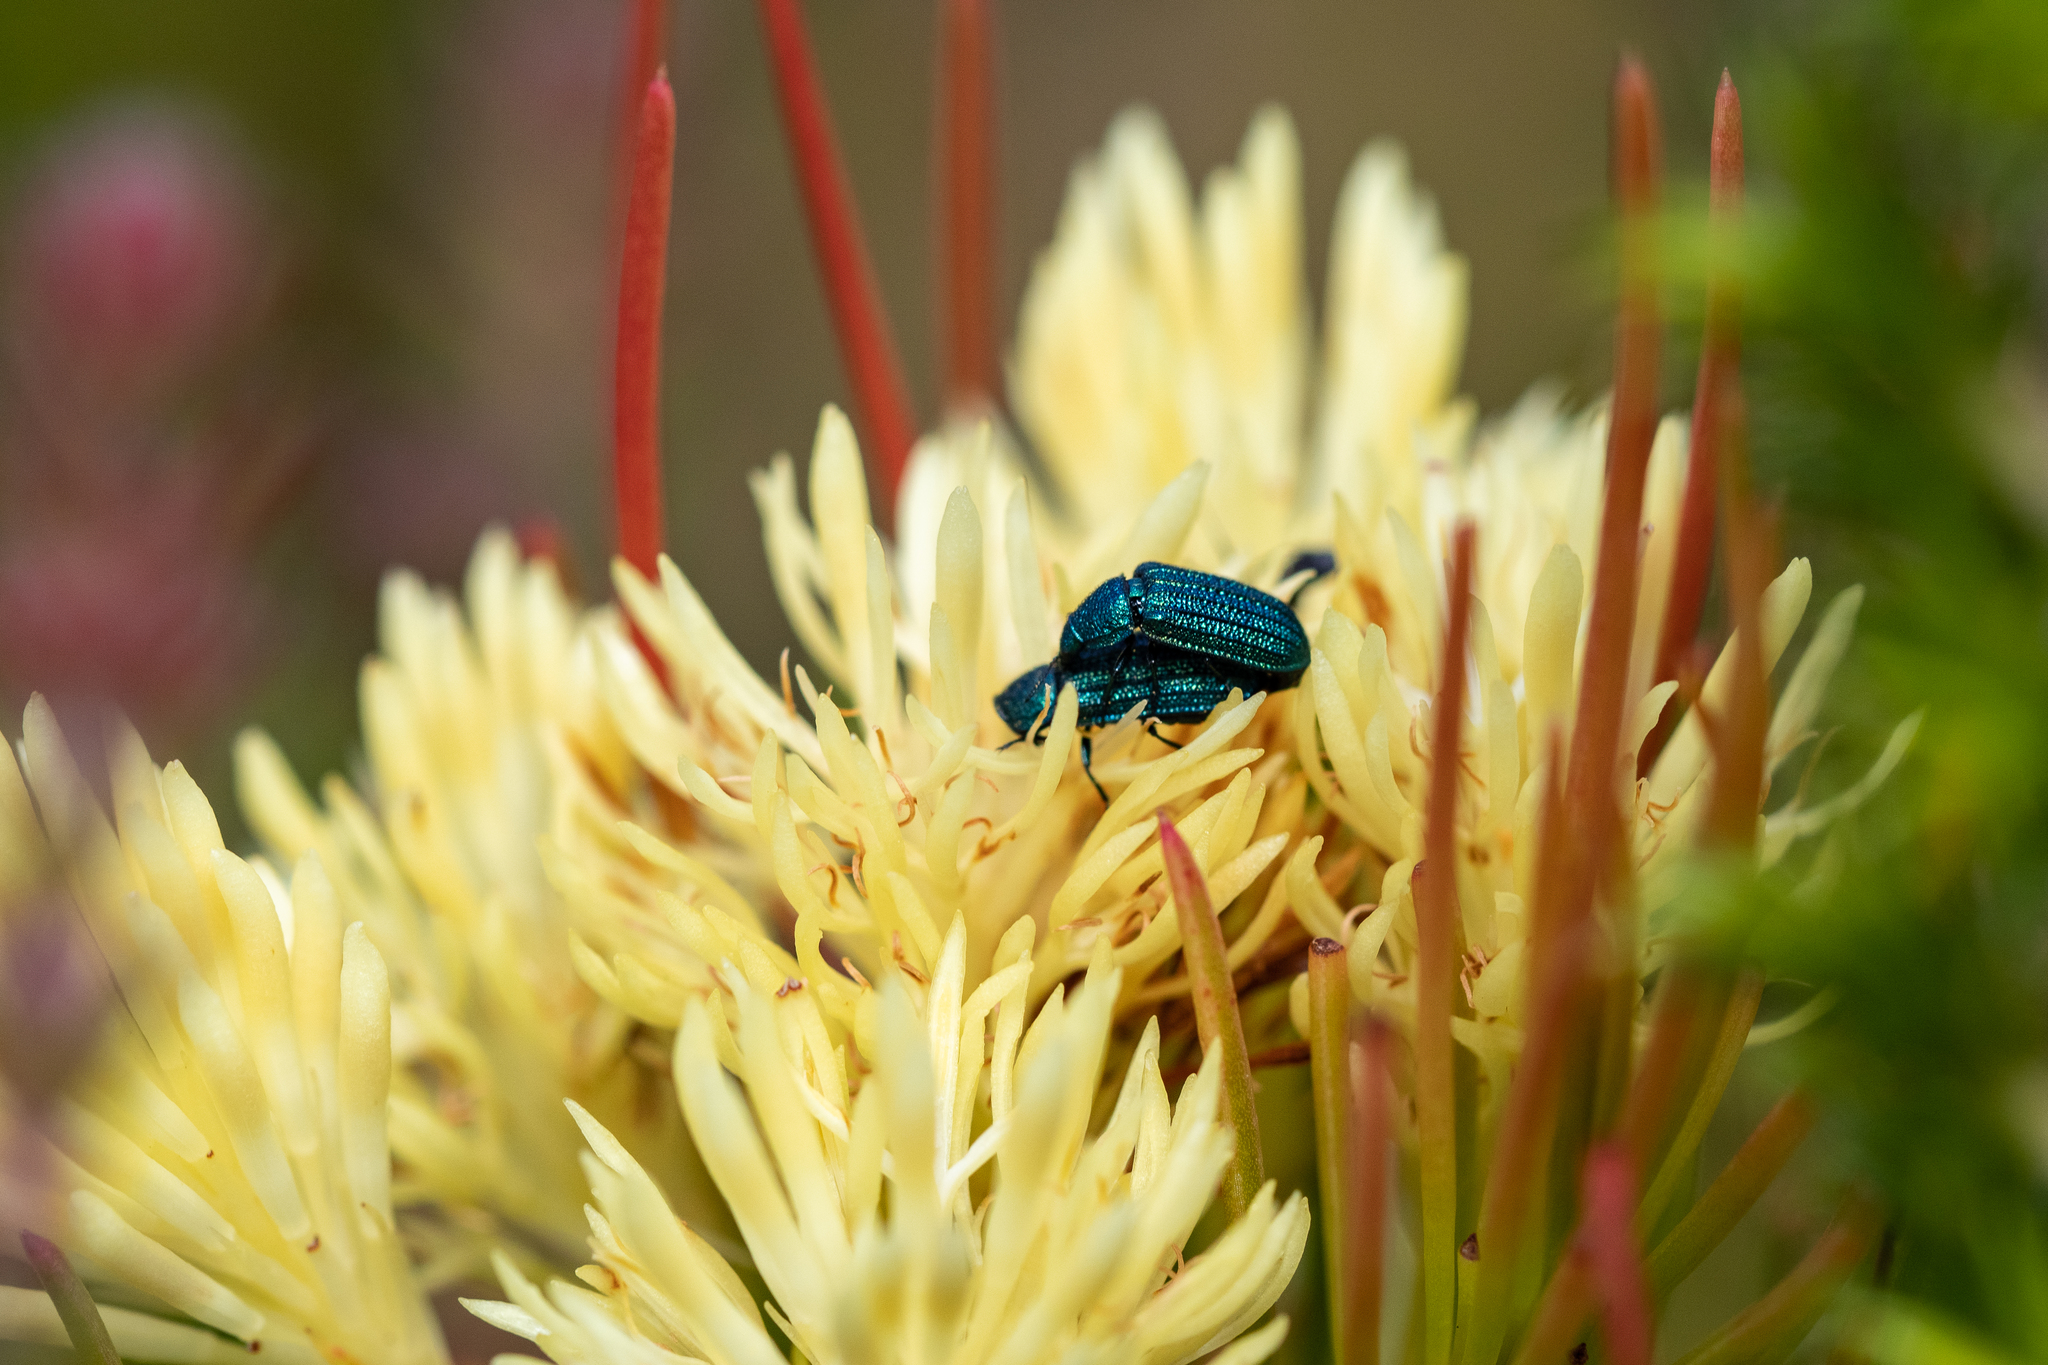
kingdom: Plantae
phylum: Tracheophyta
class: Magnoliopsida
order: Proteales
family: Proteaceae
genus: Aulax
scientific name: Aulax cancellata
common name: Channel-leaf featherbush
